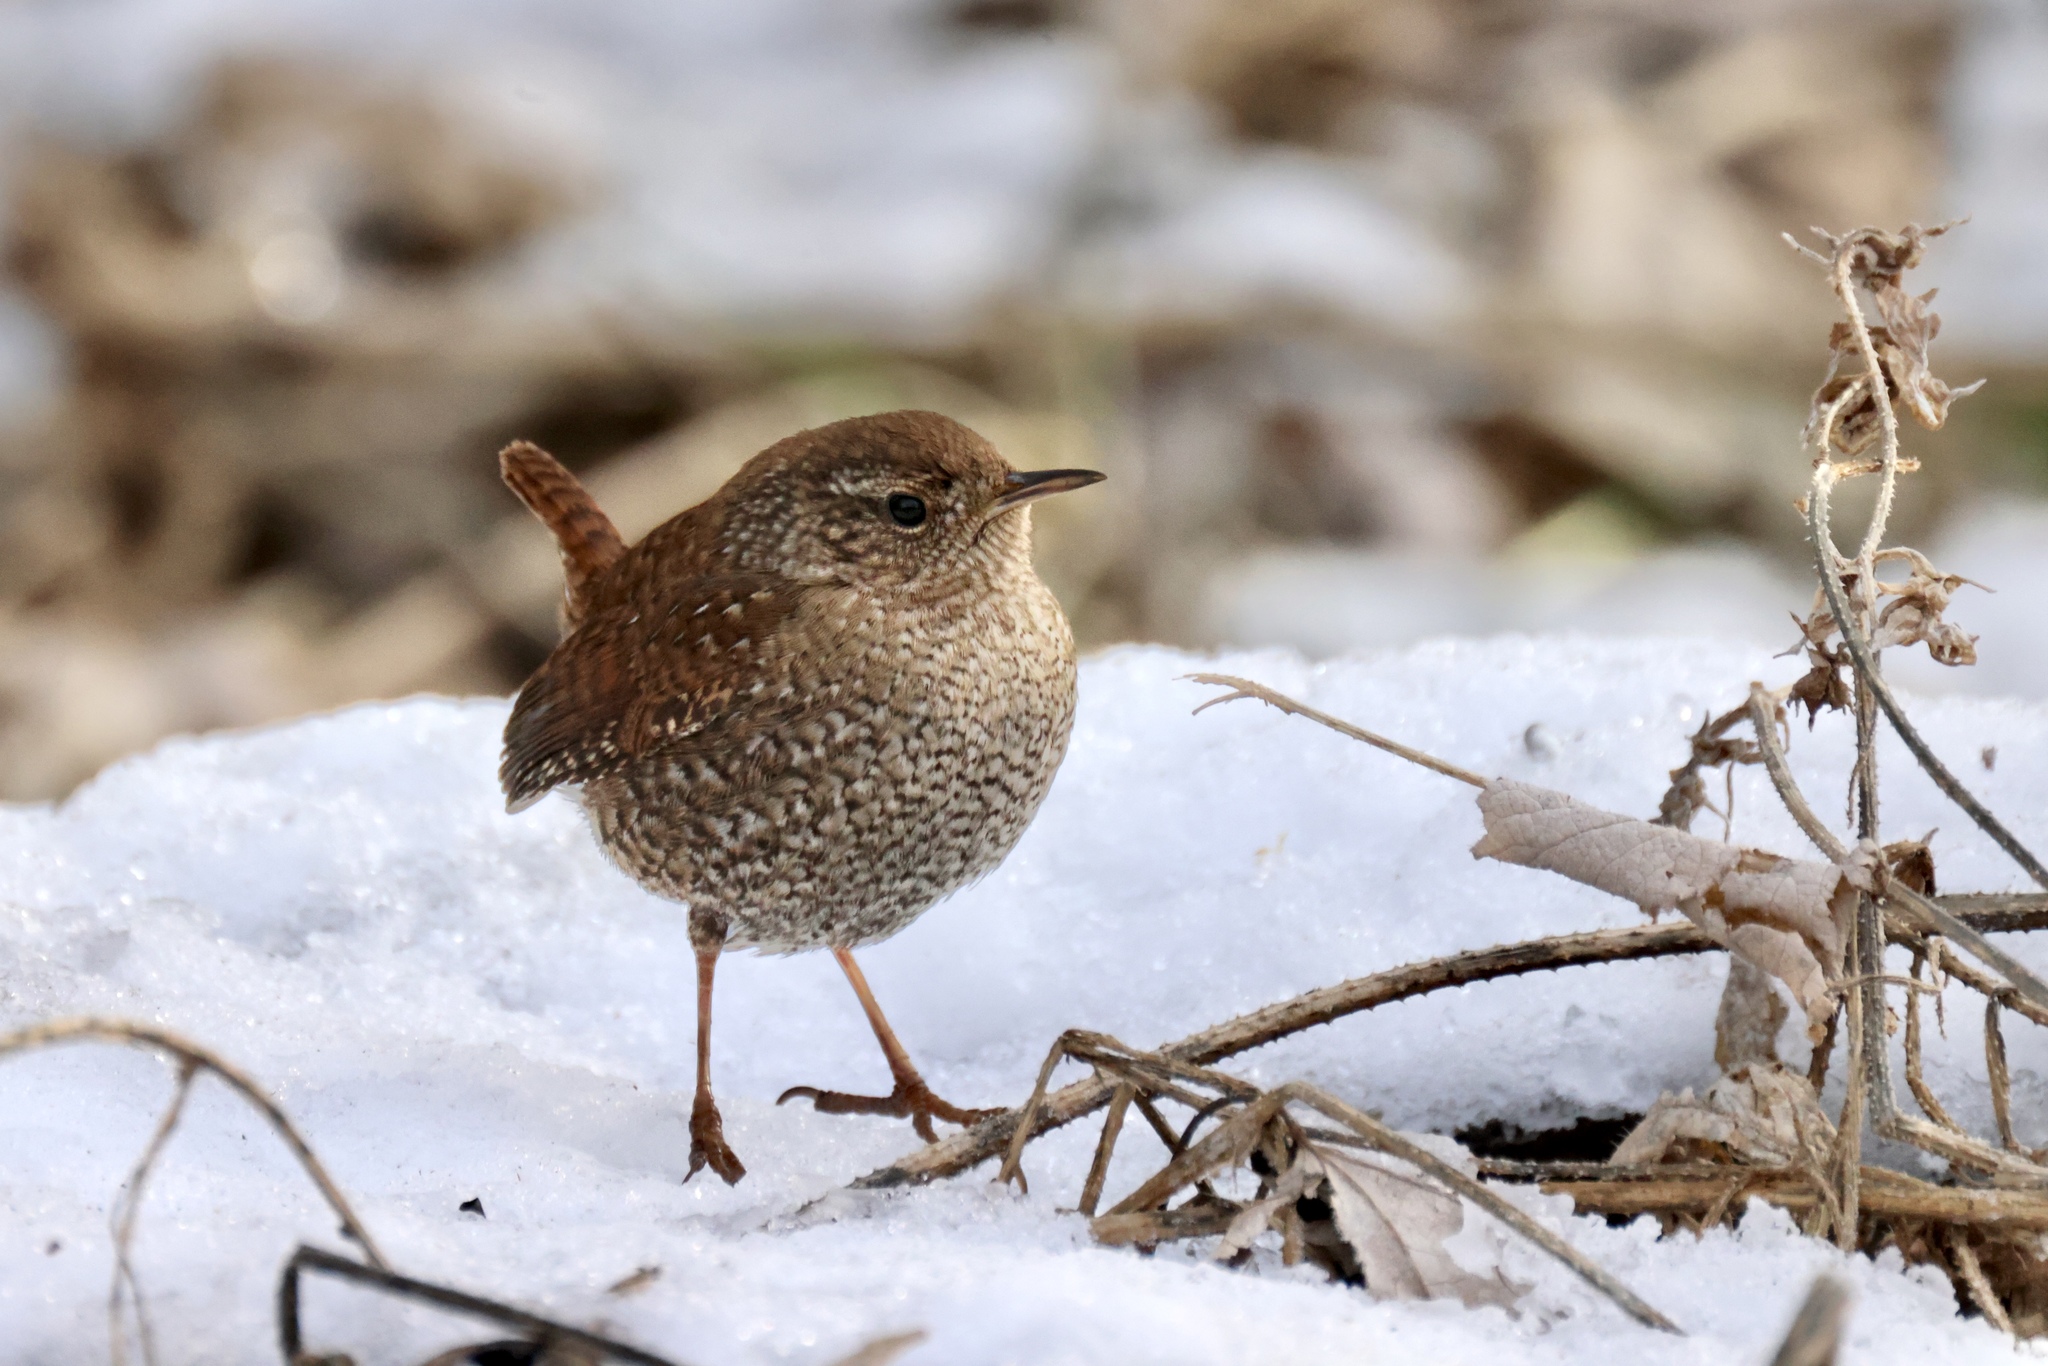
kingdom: Animalia
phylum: Chordata
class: Aves
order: Passeriformes
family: Troglodytidae
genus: Troglodytes
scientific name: Troglodytes hiemalis
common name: Winter wren
